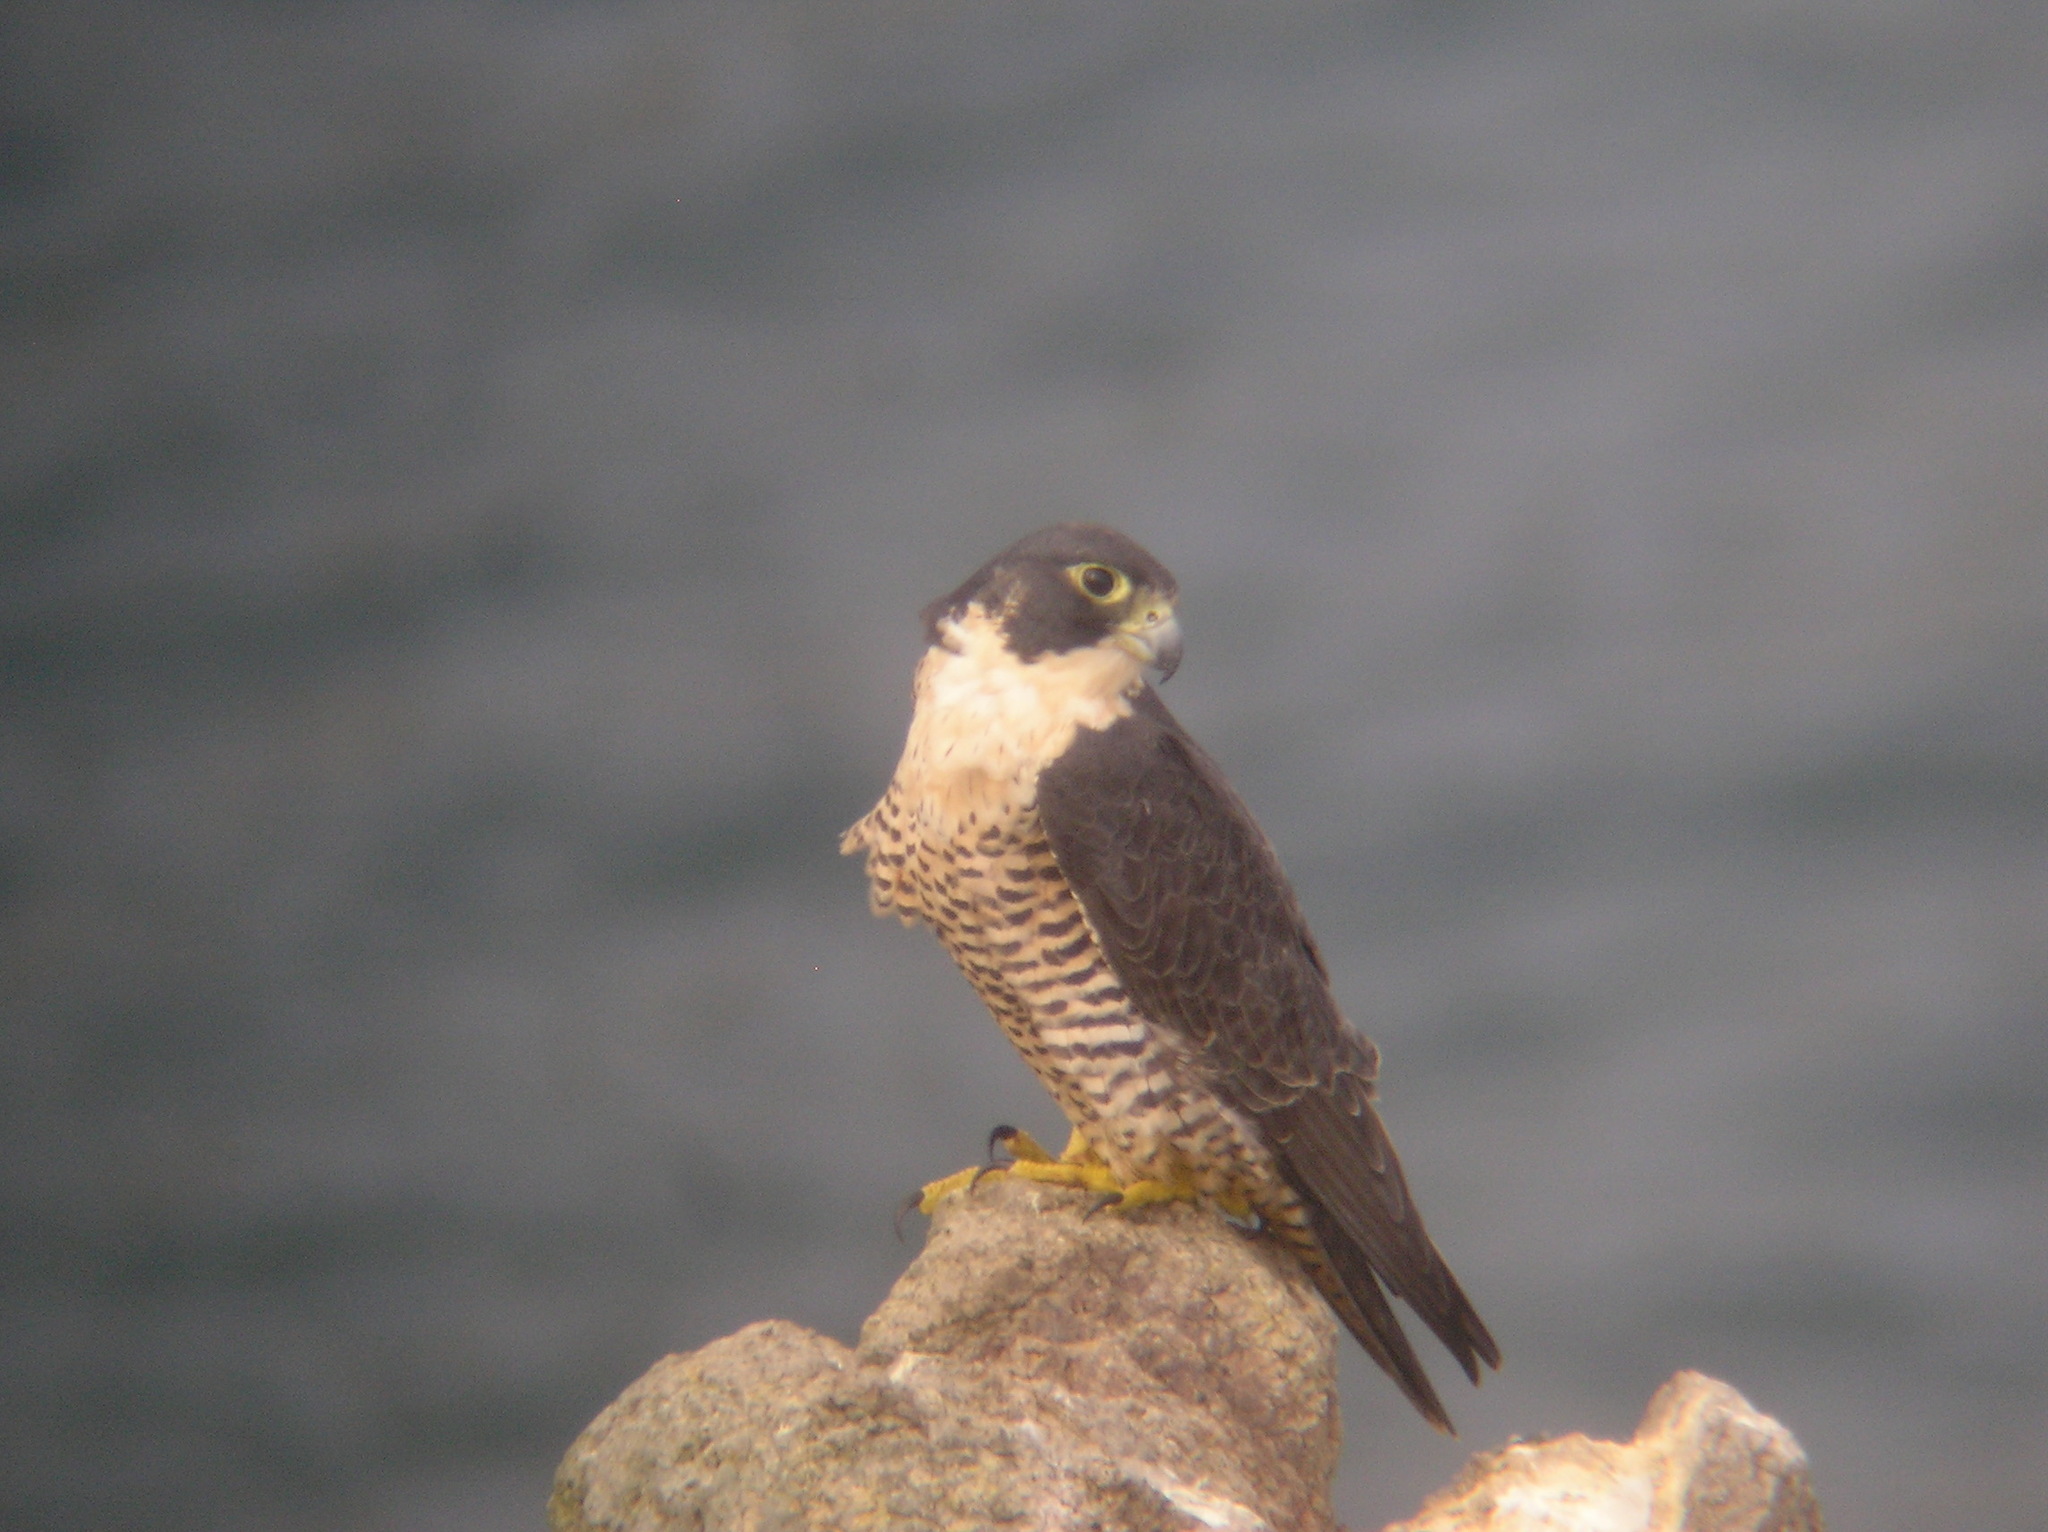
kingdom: Animalia
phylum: Chordata
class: Aves
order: Falconiformes
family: Falconidae
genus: Falco
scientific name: Falco peregrinus
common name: Peregrine falcon
